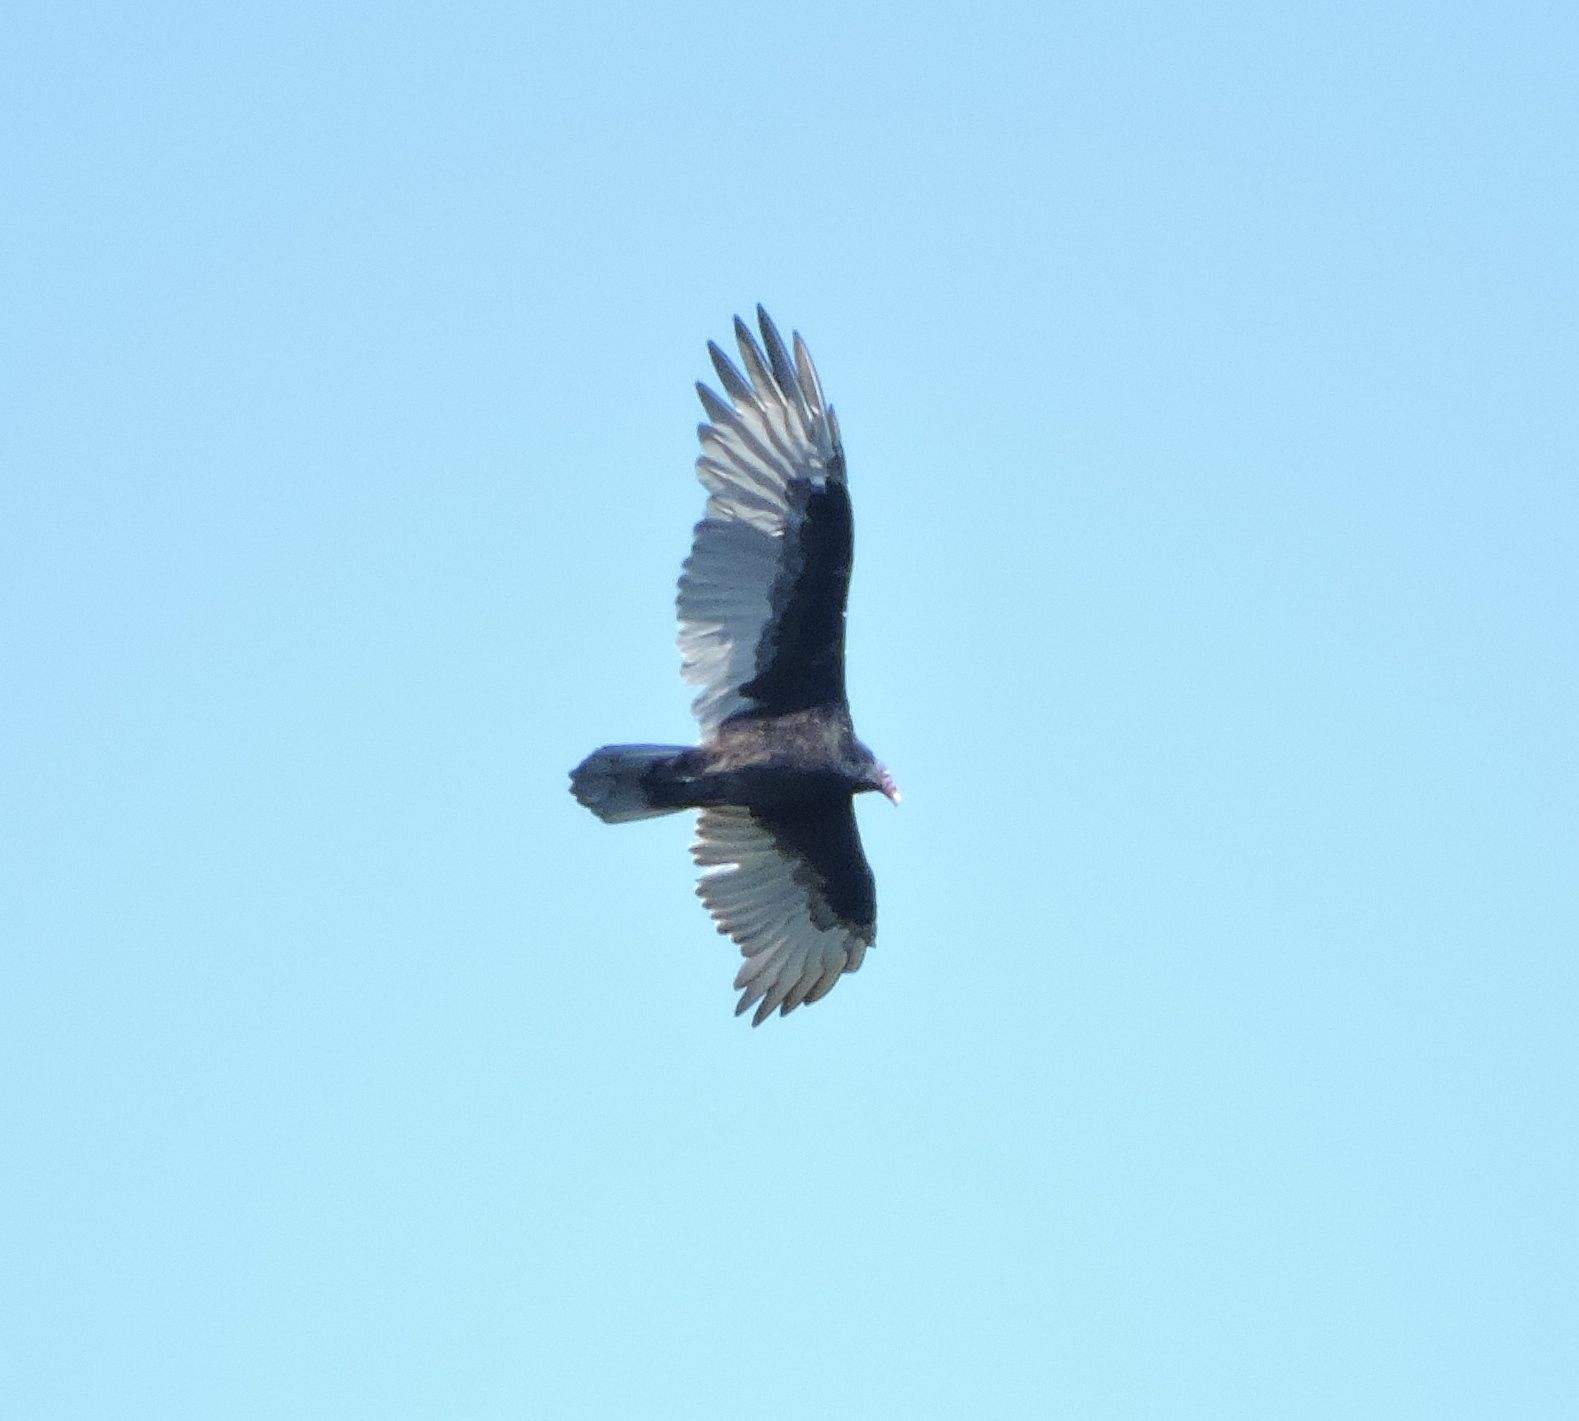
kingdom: Animalia
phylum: Chordata
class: Aves
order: Accipitriformes
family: Cathartidae
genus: Cathartes
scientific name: Cathartes aura
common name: Turkey vulture
